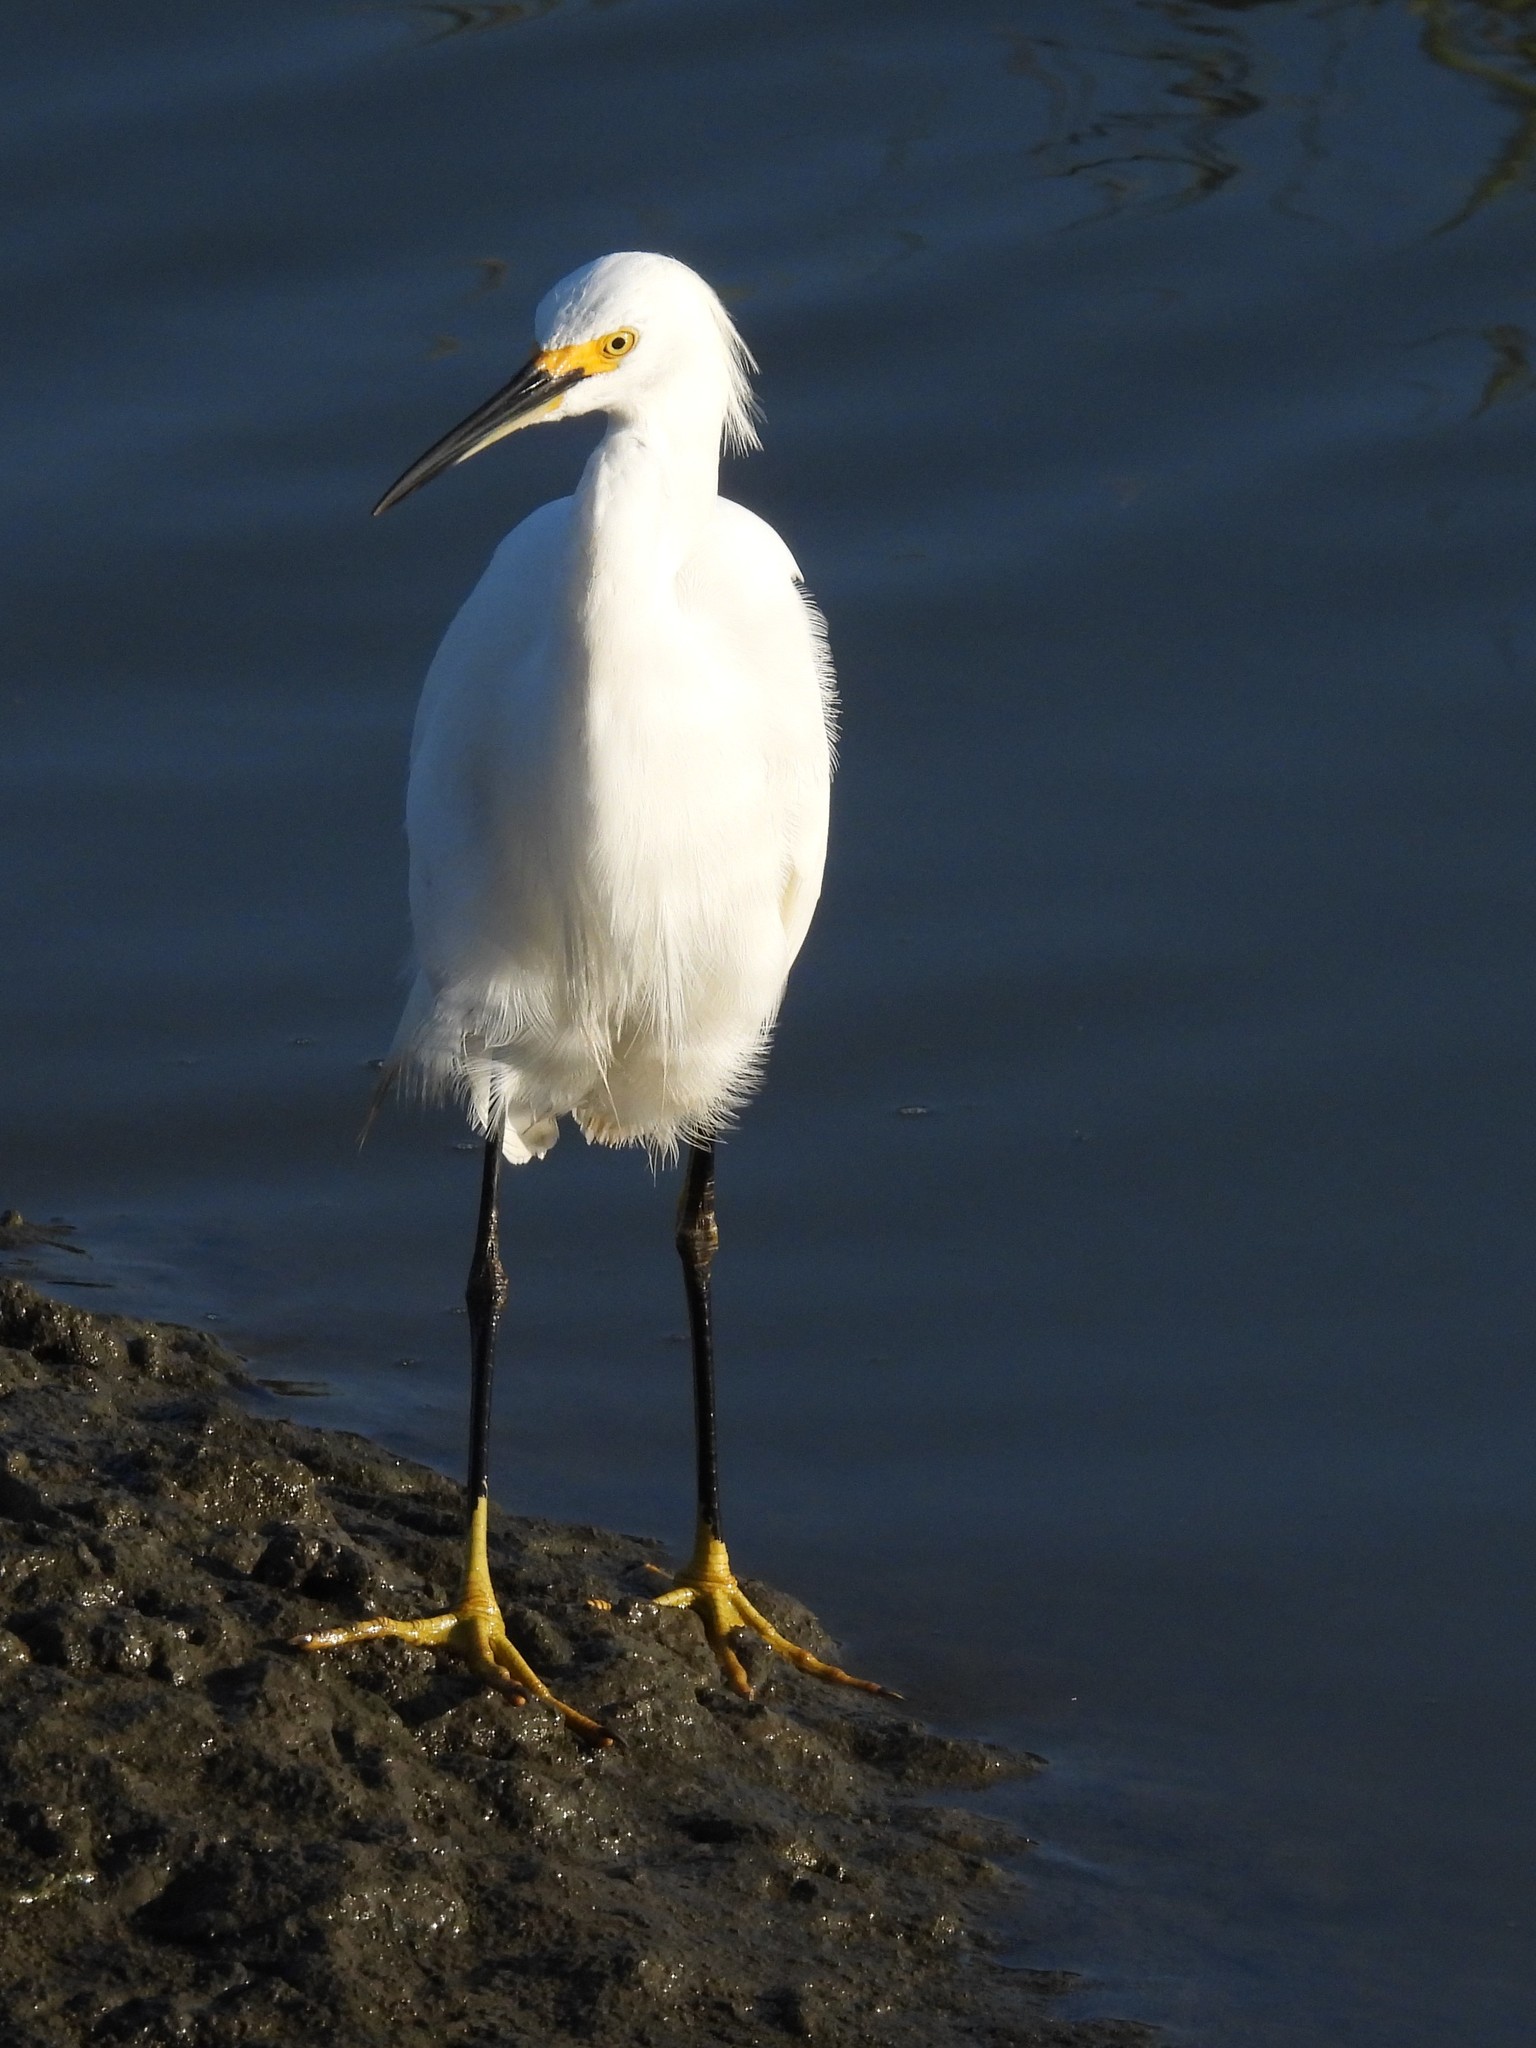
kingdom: Animalia
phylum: Chordata
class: Aves
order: Pelecaniformes
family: Ardeidae
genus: Egretta
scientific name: Egretta thula
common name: Snowy egret
